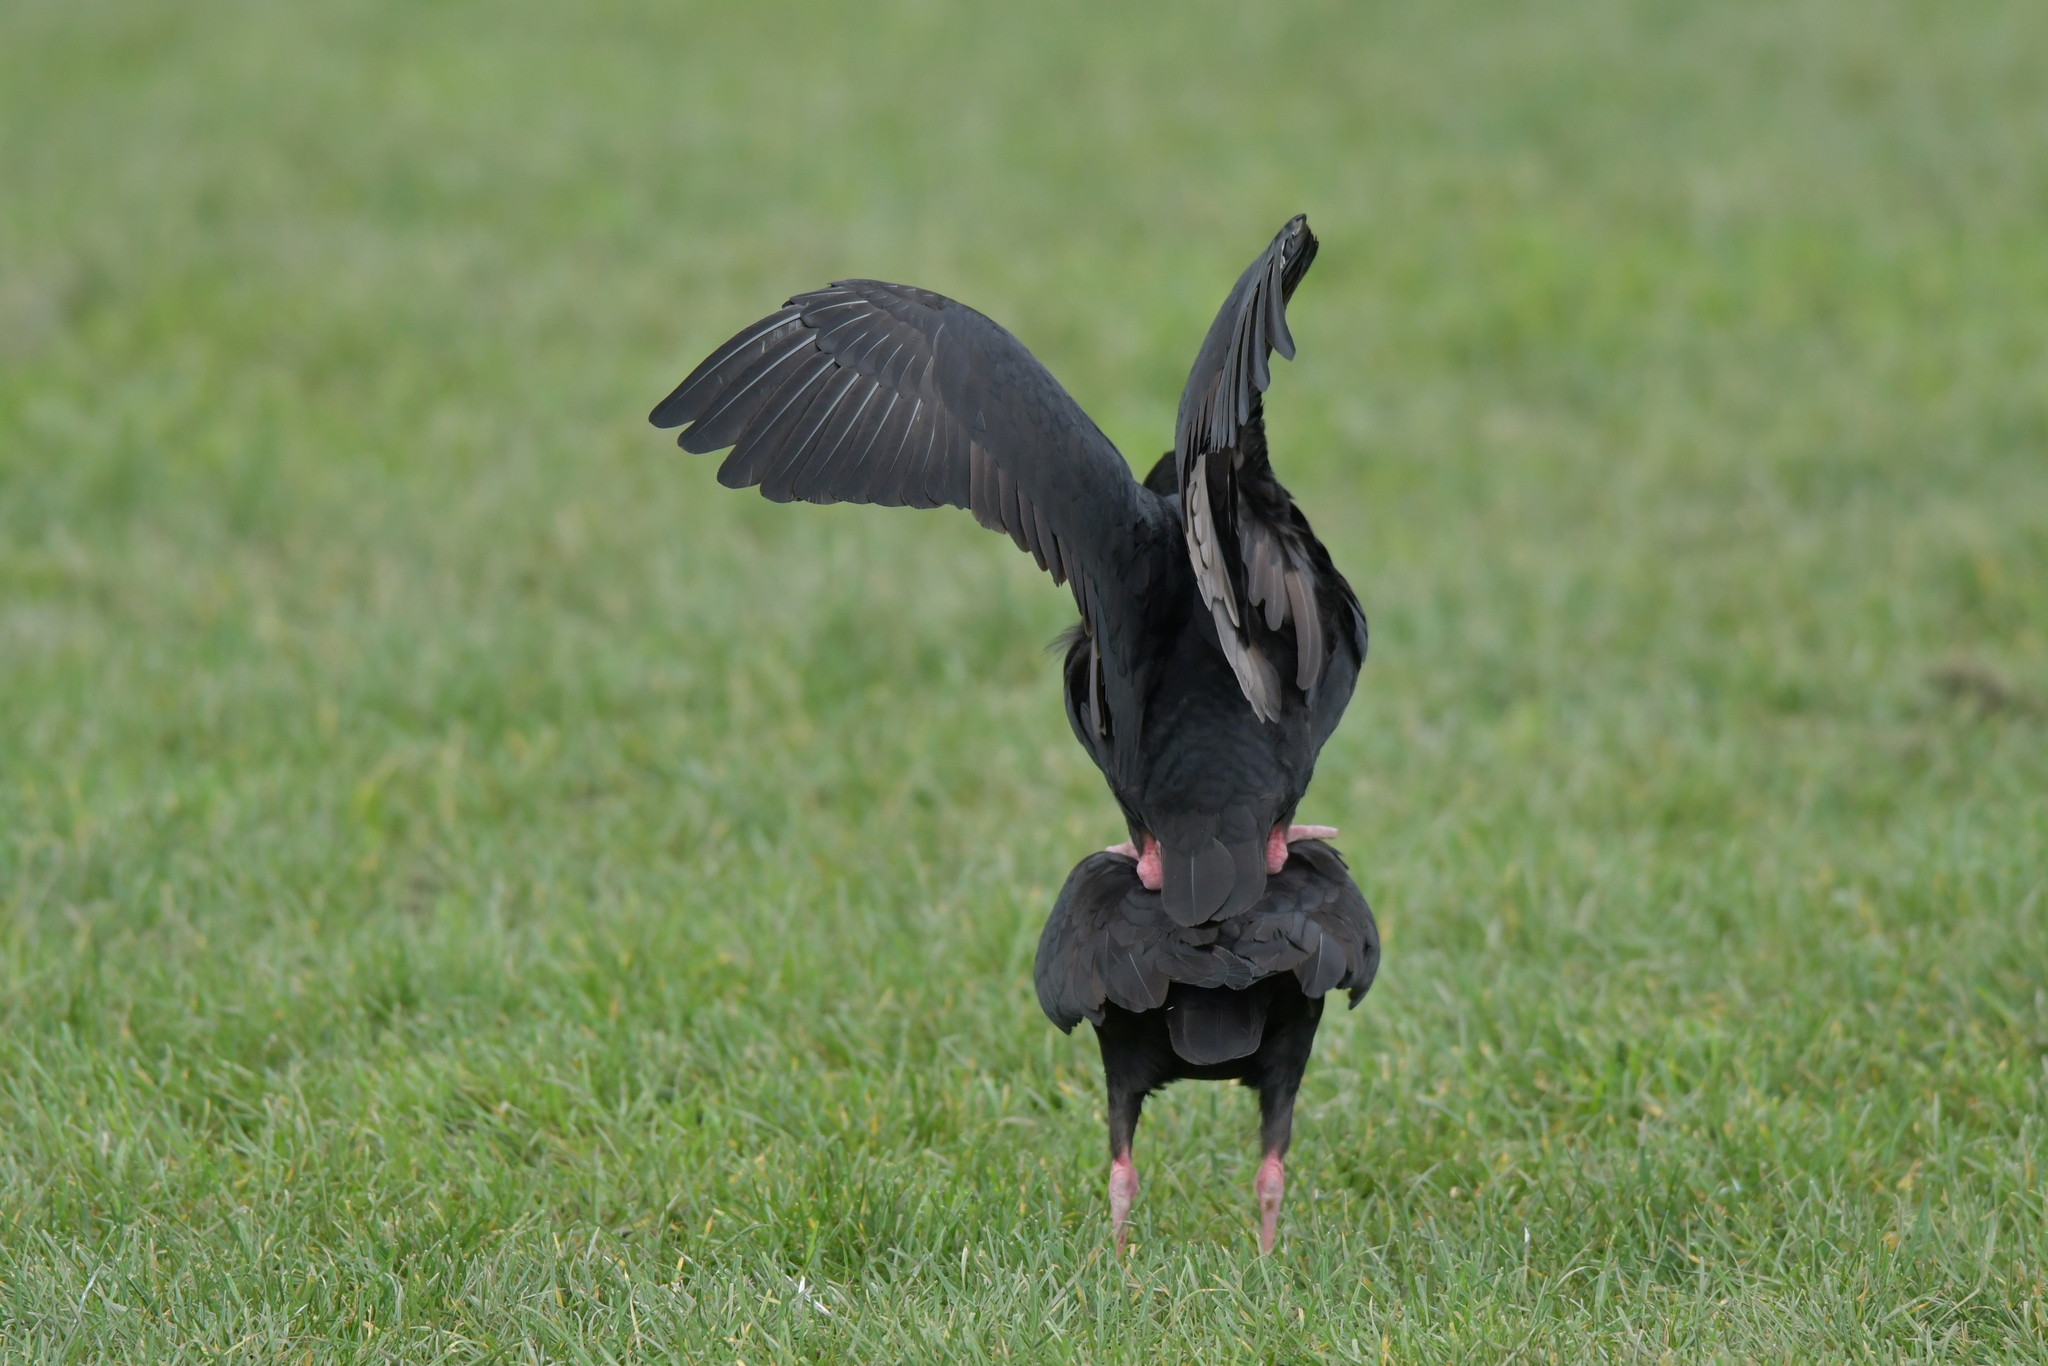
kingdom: Animalia
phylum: Chordata
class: Aves
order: Charadriiformes
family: Haematopodidae
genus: Haematopus
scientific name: Haematopus unicolor
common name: Variable oystercatcher
